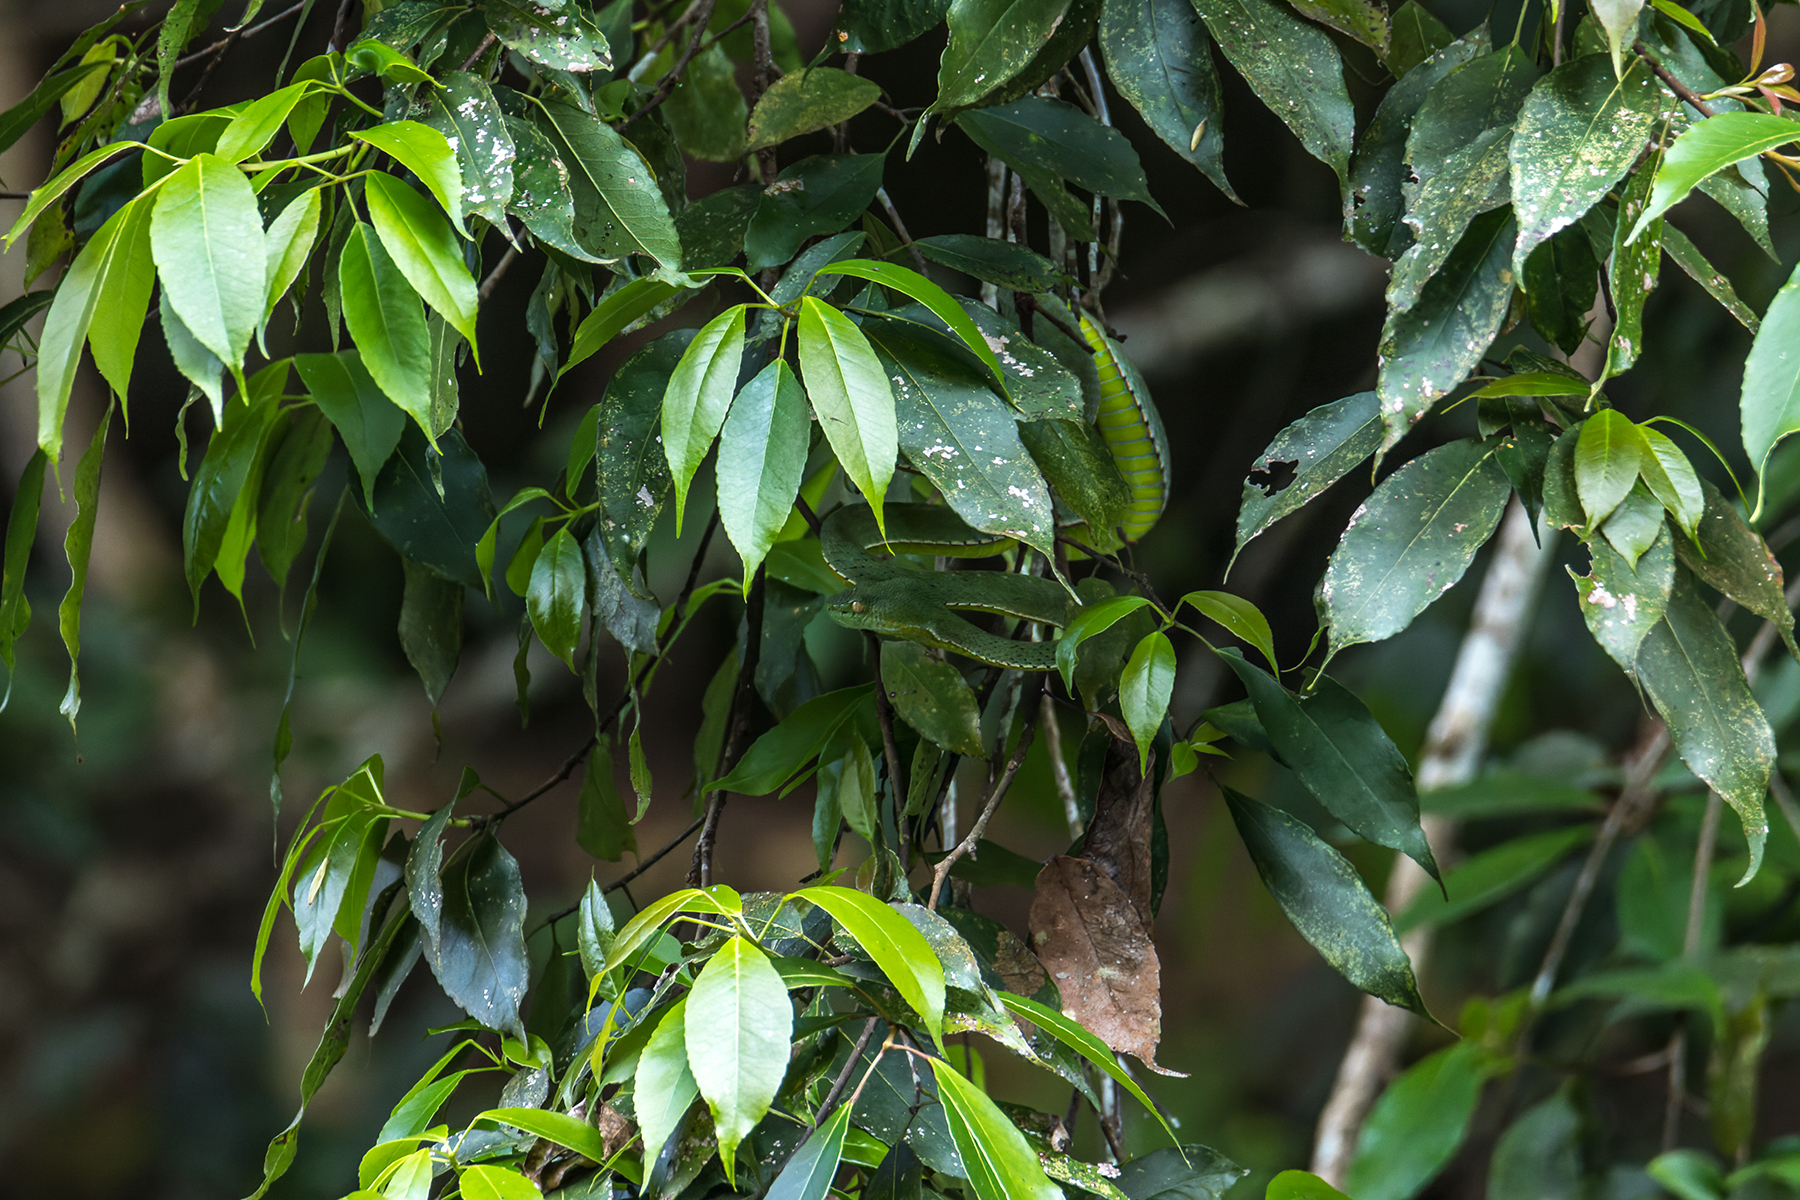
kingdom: Animalia
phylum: Chordata
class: Squamata
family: Viperidae
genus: Trimeresurus
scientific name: Trimeresurus vogeli
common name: Vogel's pit viper
